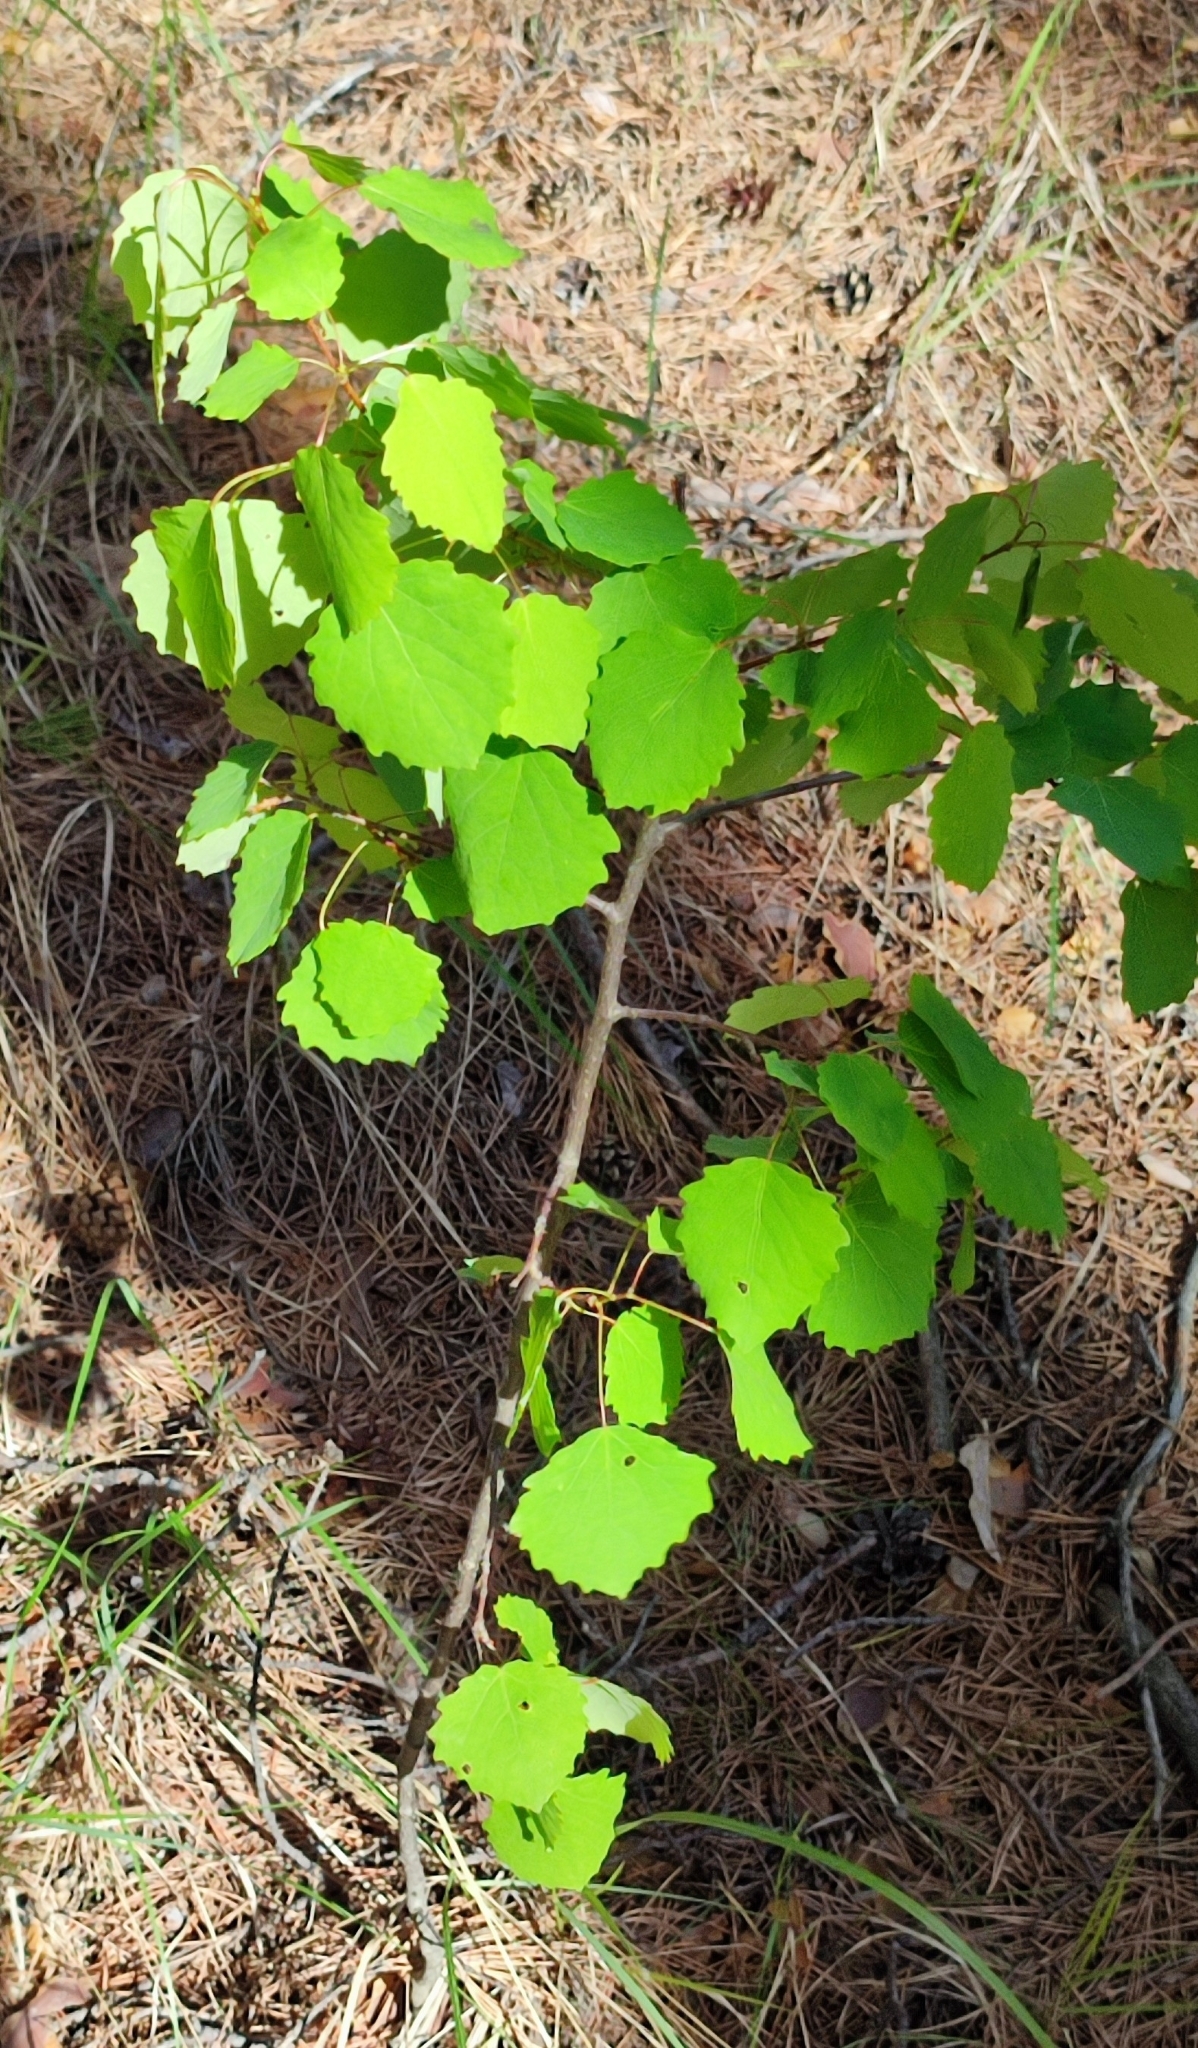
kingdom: Plantae
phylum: Tracheophyta
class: Magnoliopsida
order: Malpighiales
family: Salicaceae
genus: Populus
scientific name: Populus tremula
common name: European aspen
